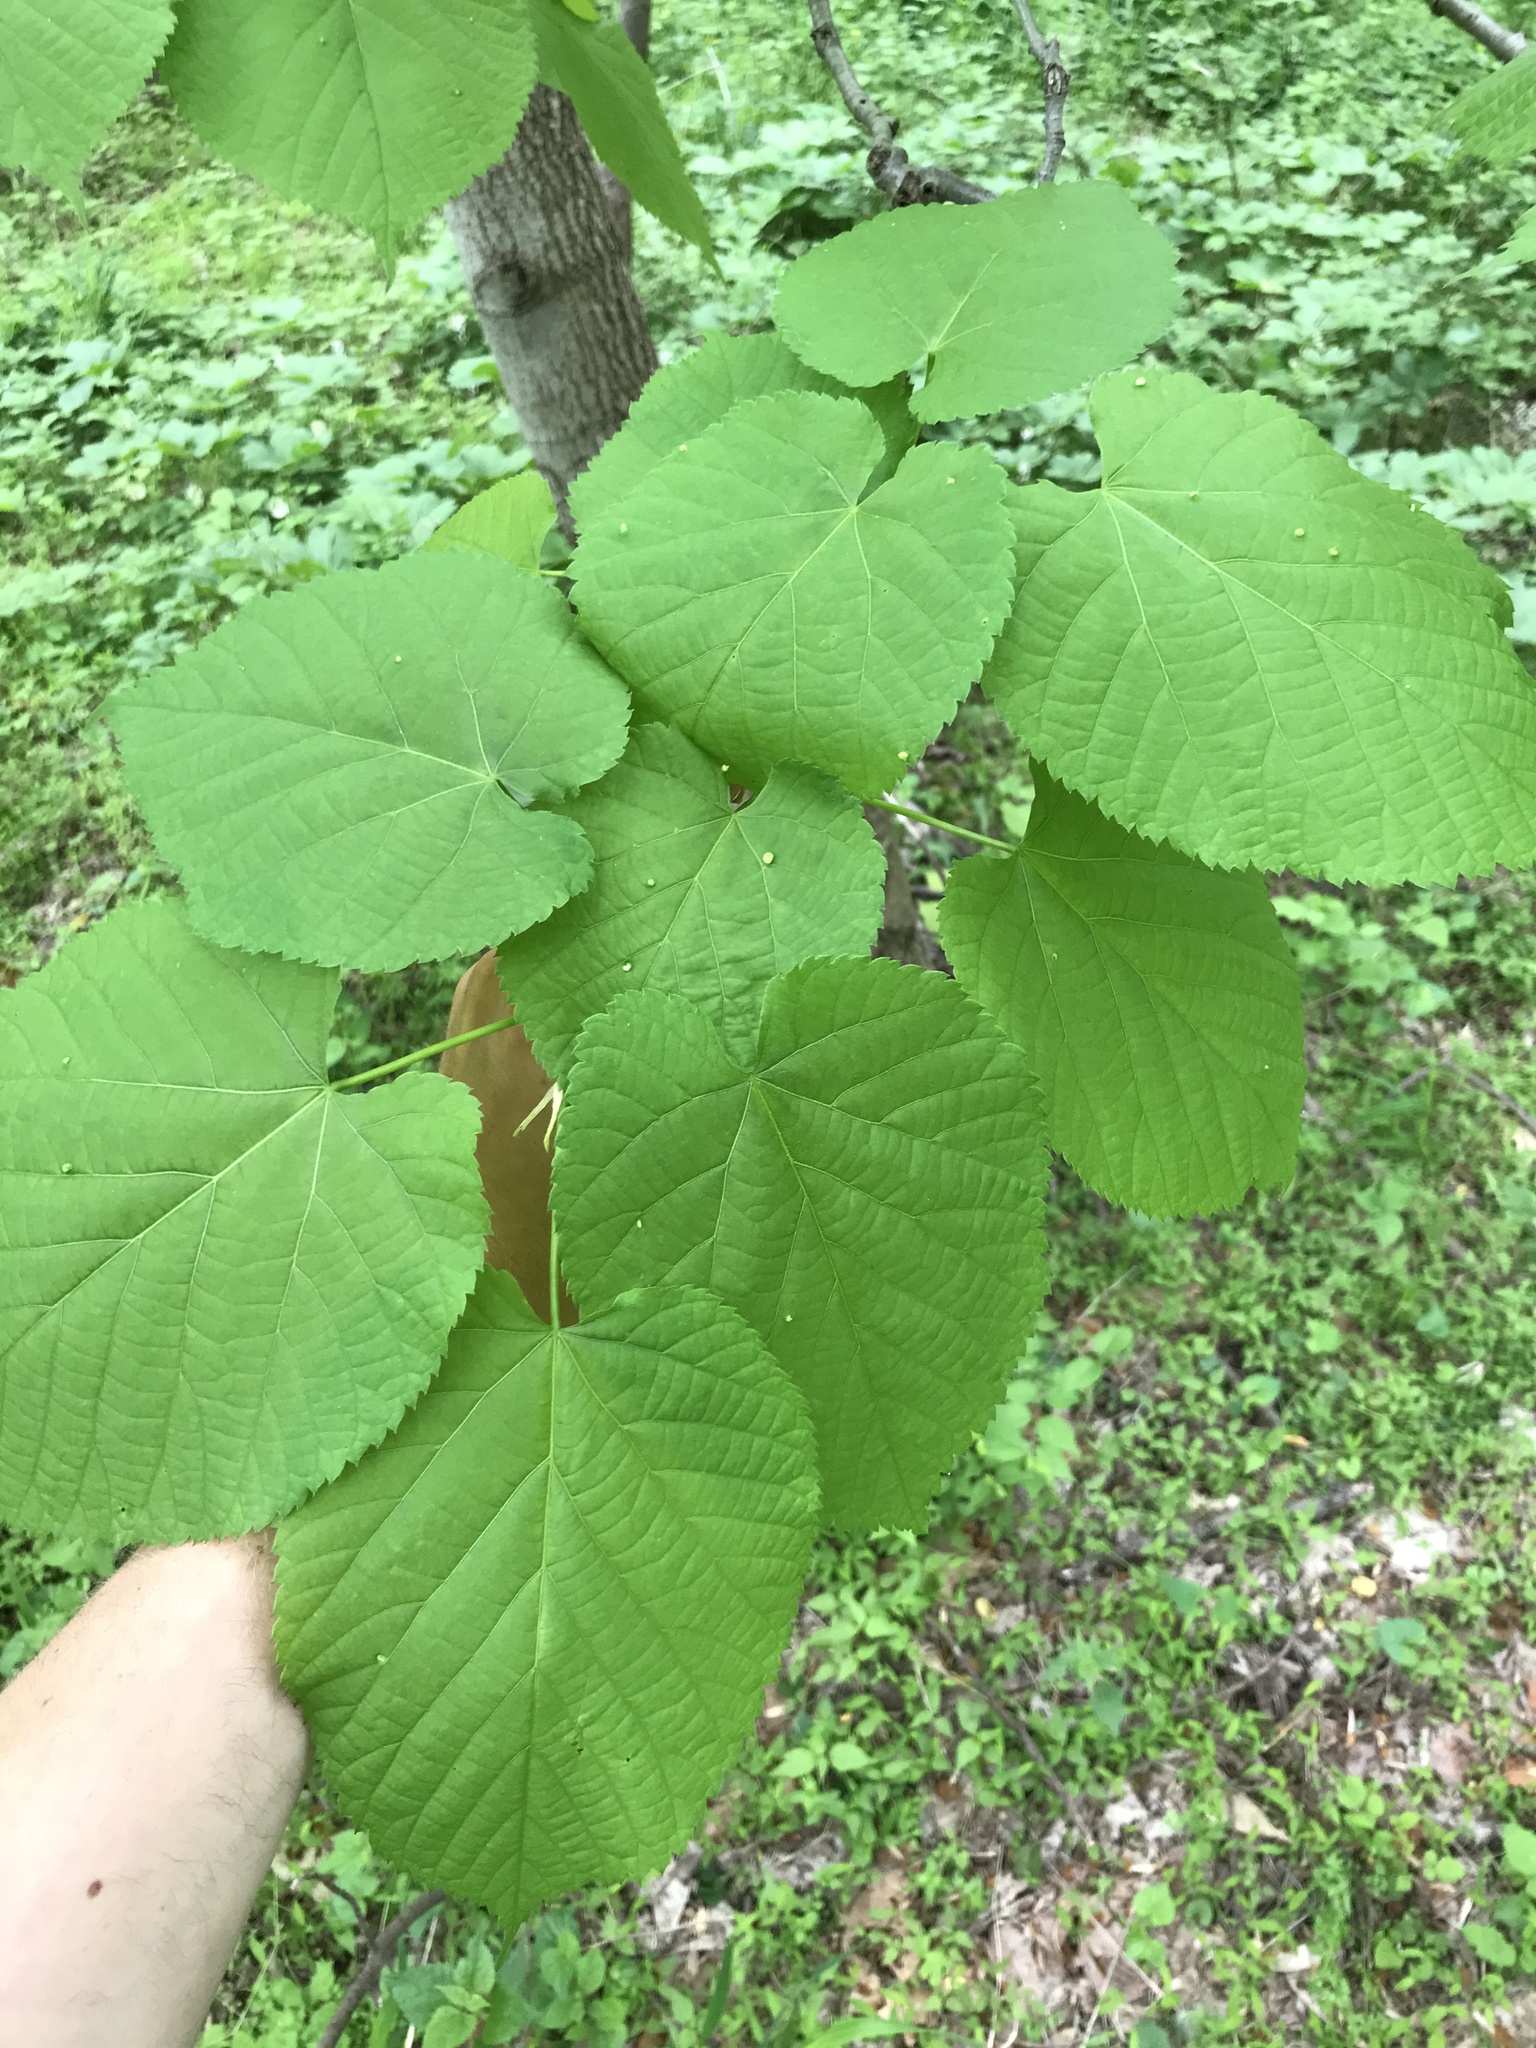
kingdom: Plantae
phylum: Tracheophyta
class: Magnoliopsida
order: Malvales
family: Malvaceae
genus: Tilia
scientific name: Tilia americana
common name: Basswood
